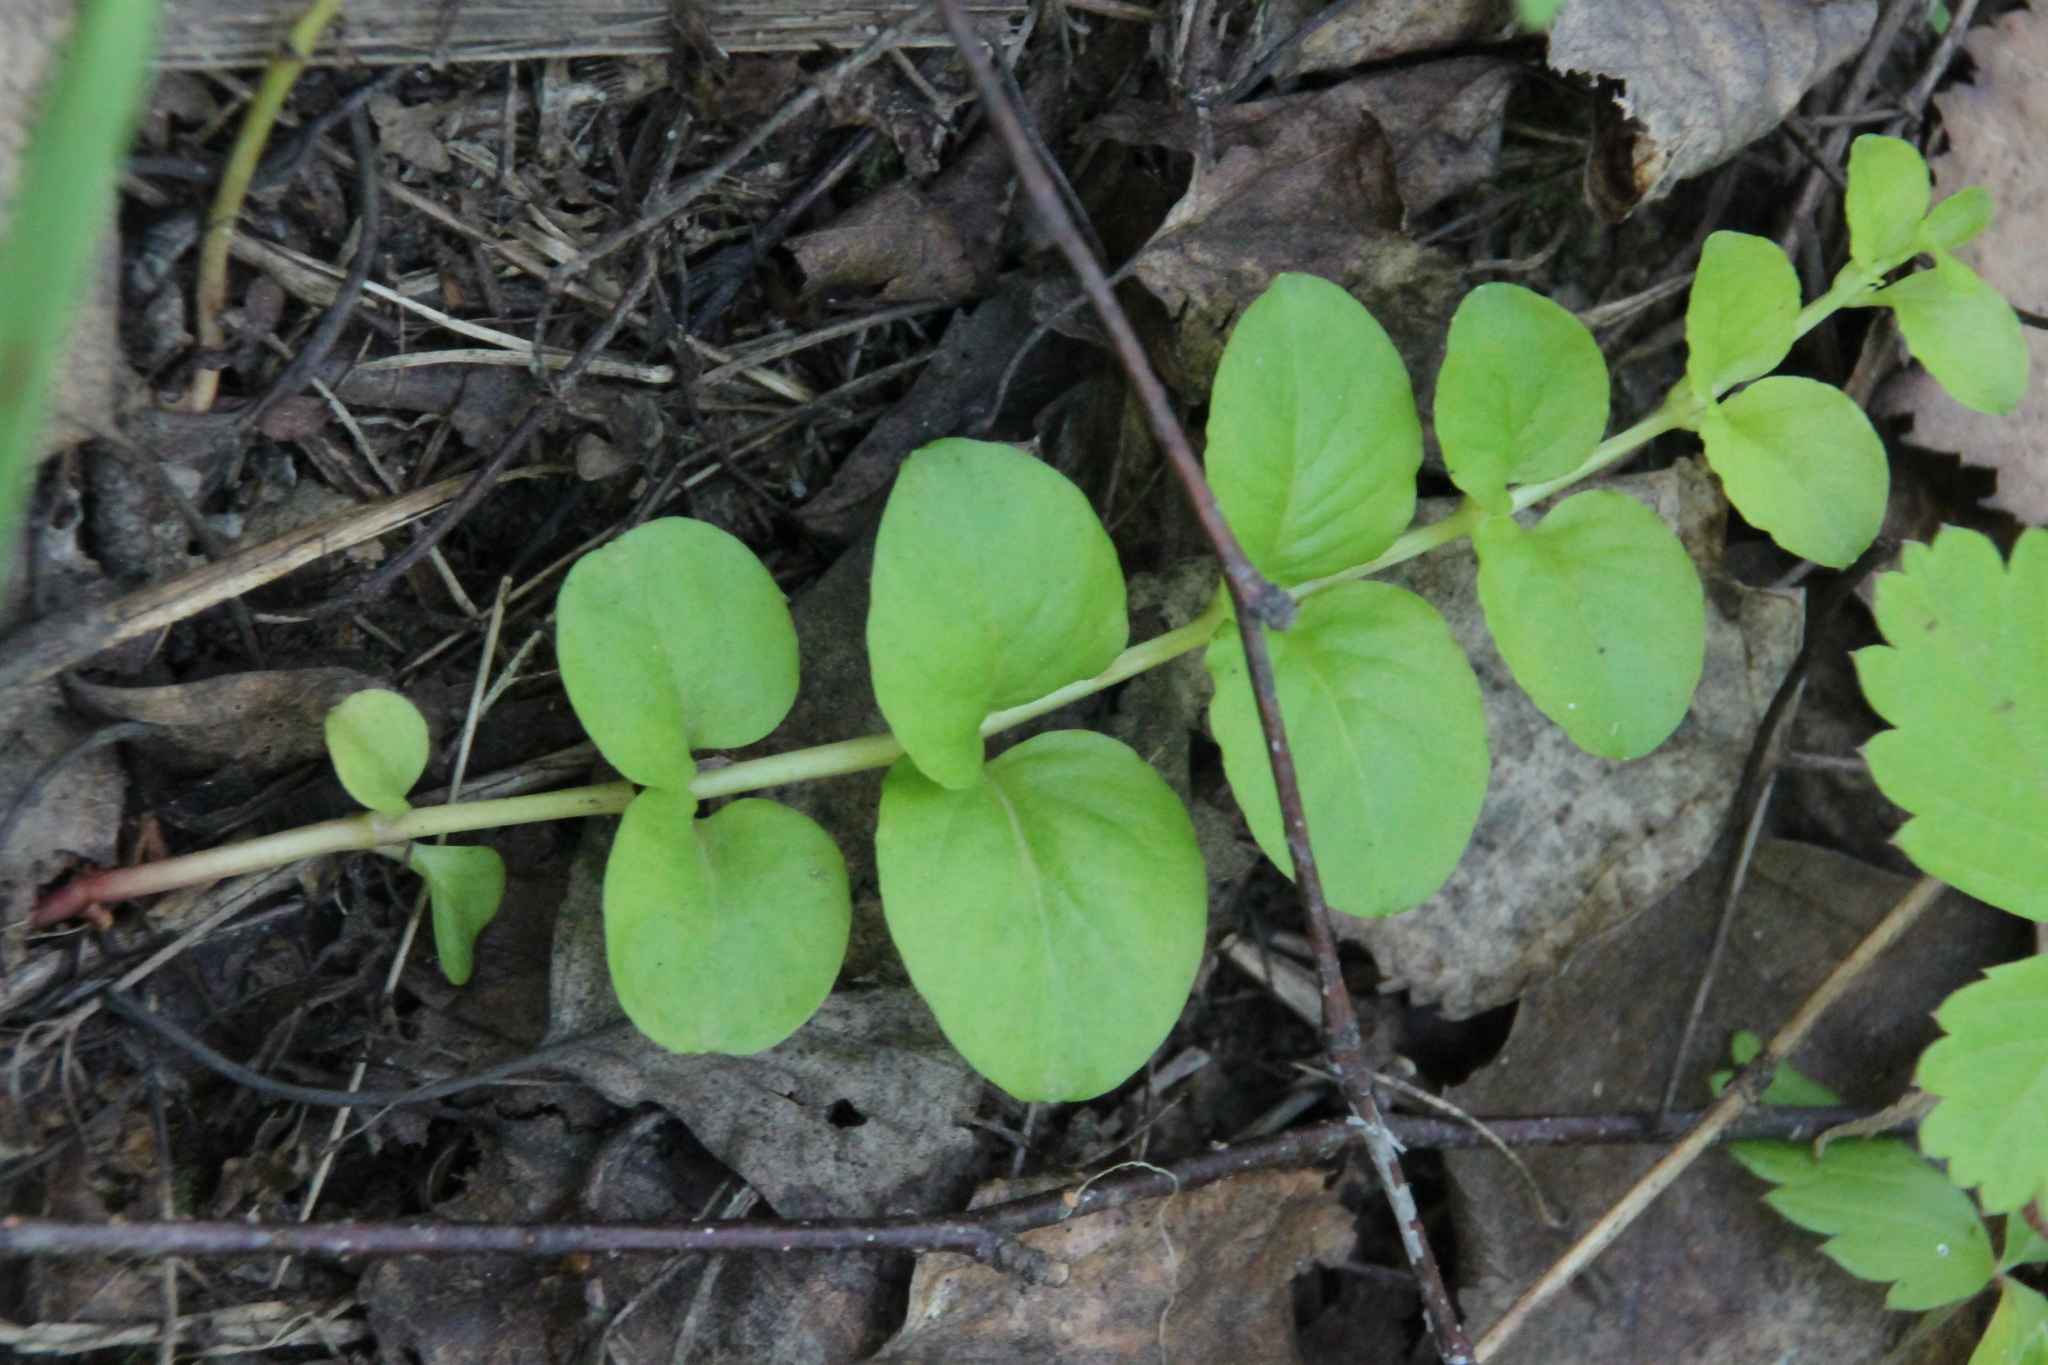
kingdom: Plantae
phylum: Tracheophyta
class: Magnoliopsida
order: Ericales
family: Primulaceae
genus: Lysimachia
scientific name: Lysimachia nummularia
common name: Moneywort
